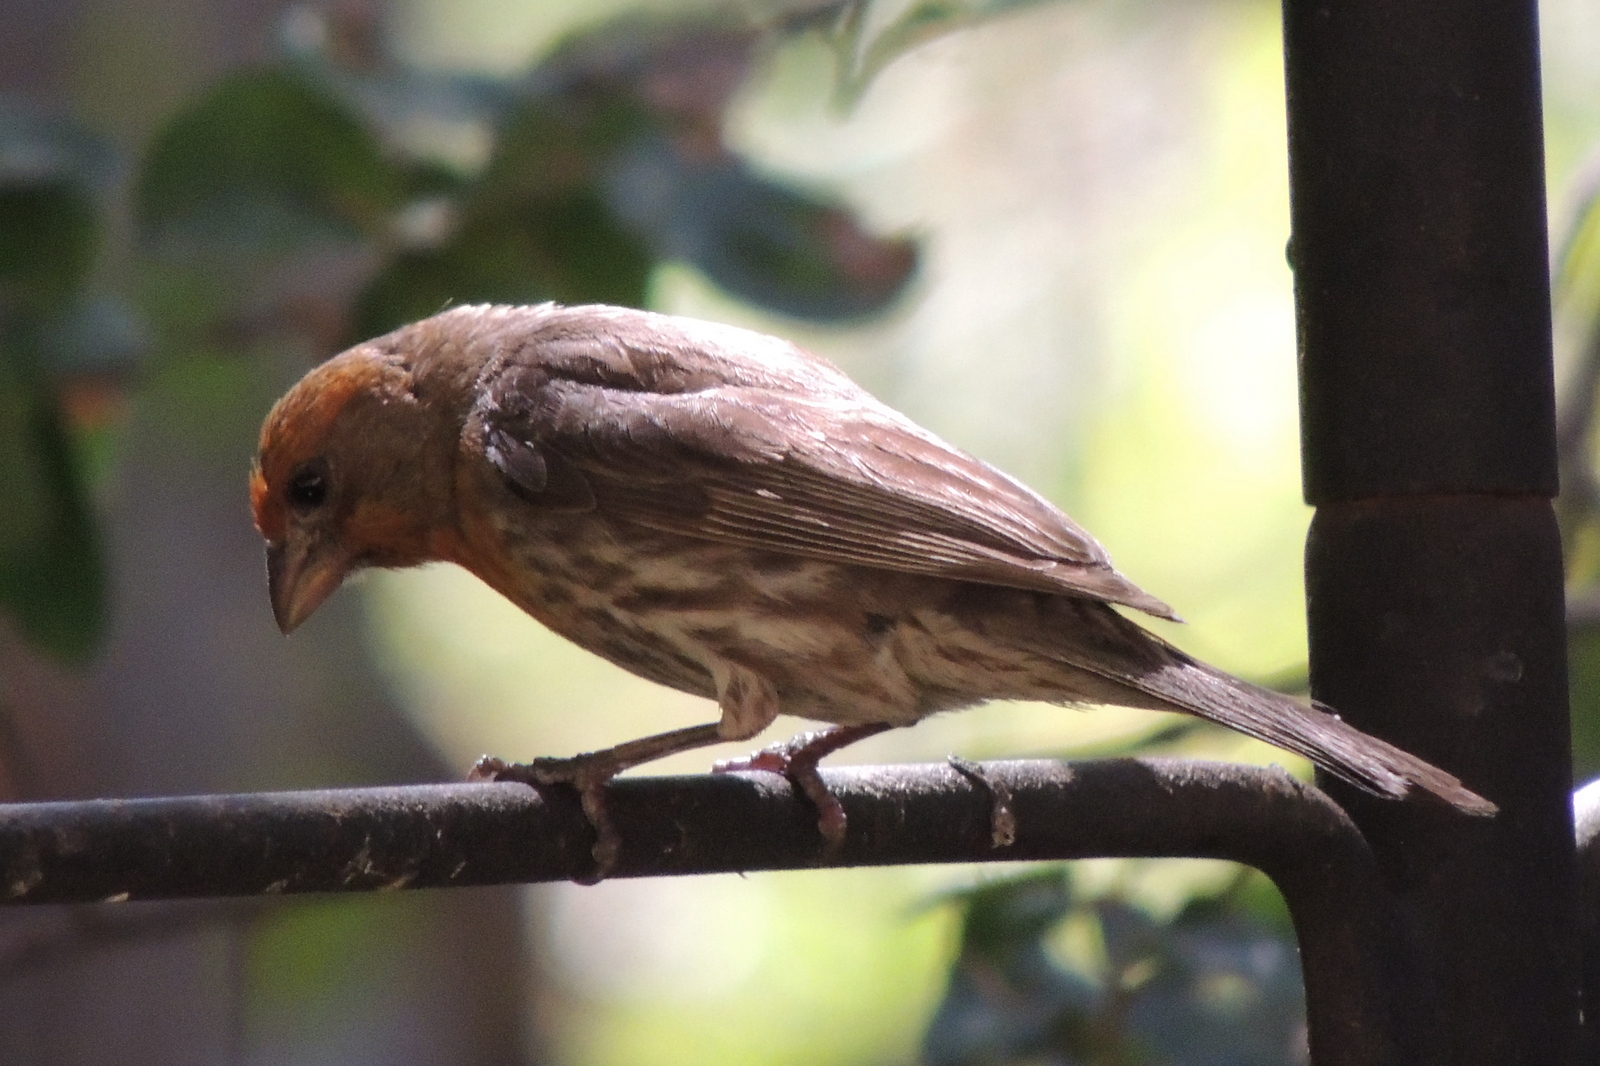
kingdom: Animalia
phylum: Chordata
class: Aves
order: Passeriformes
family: Fringillidae
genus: Haemorhous
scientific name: Haemorhous mexicanus
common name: House finch
